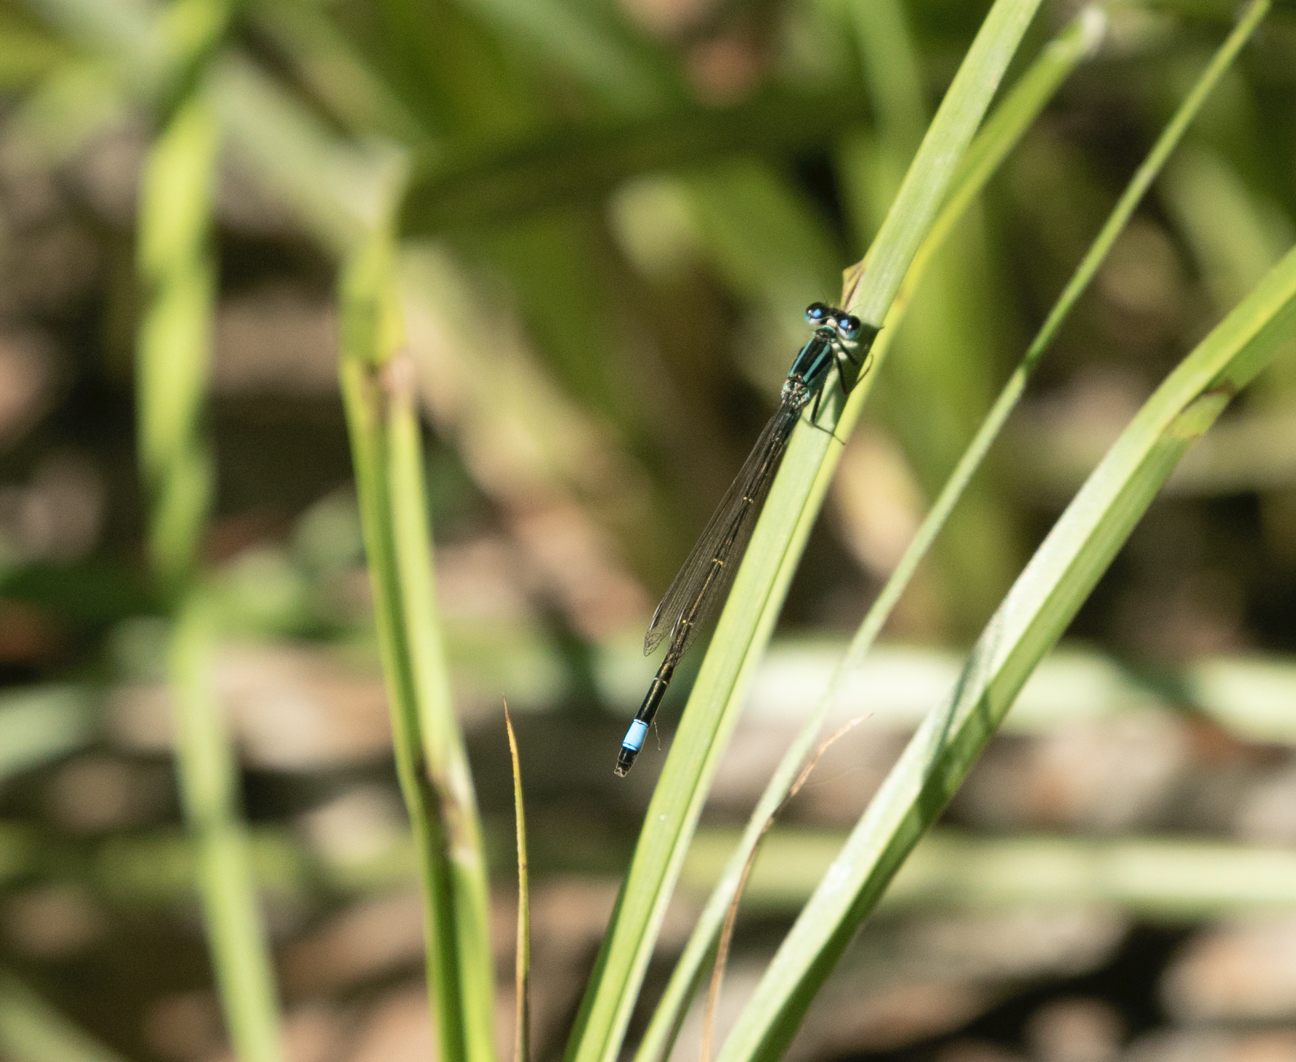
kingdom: Animalia
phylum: Arthropoda
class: Insecta
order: Odonata
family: Coenagrionidae
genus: Ischnura
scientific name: Ischnura elegans
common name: Blue-tailed damselfly
